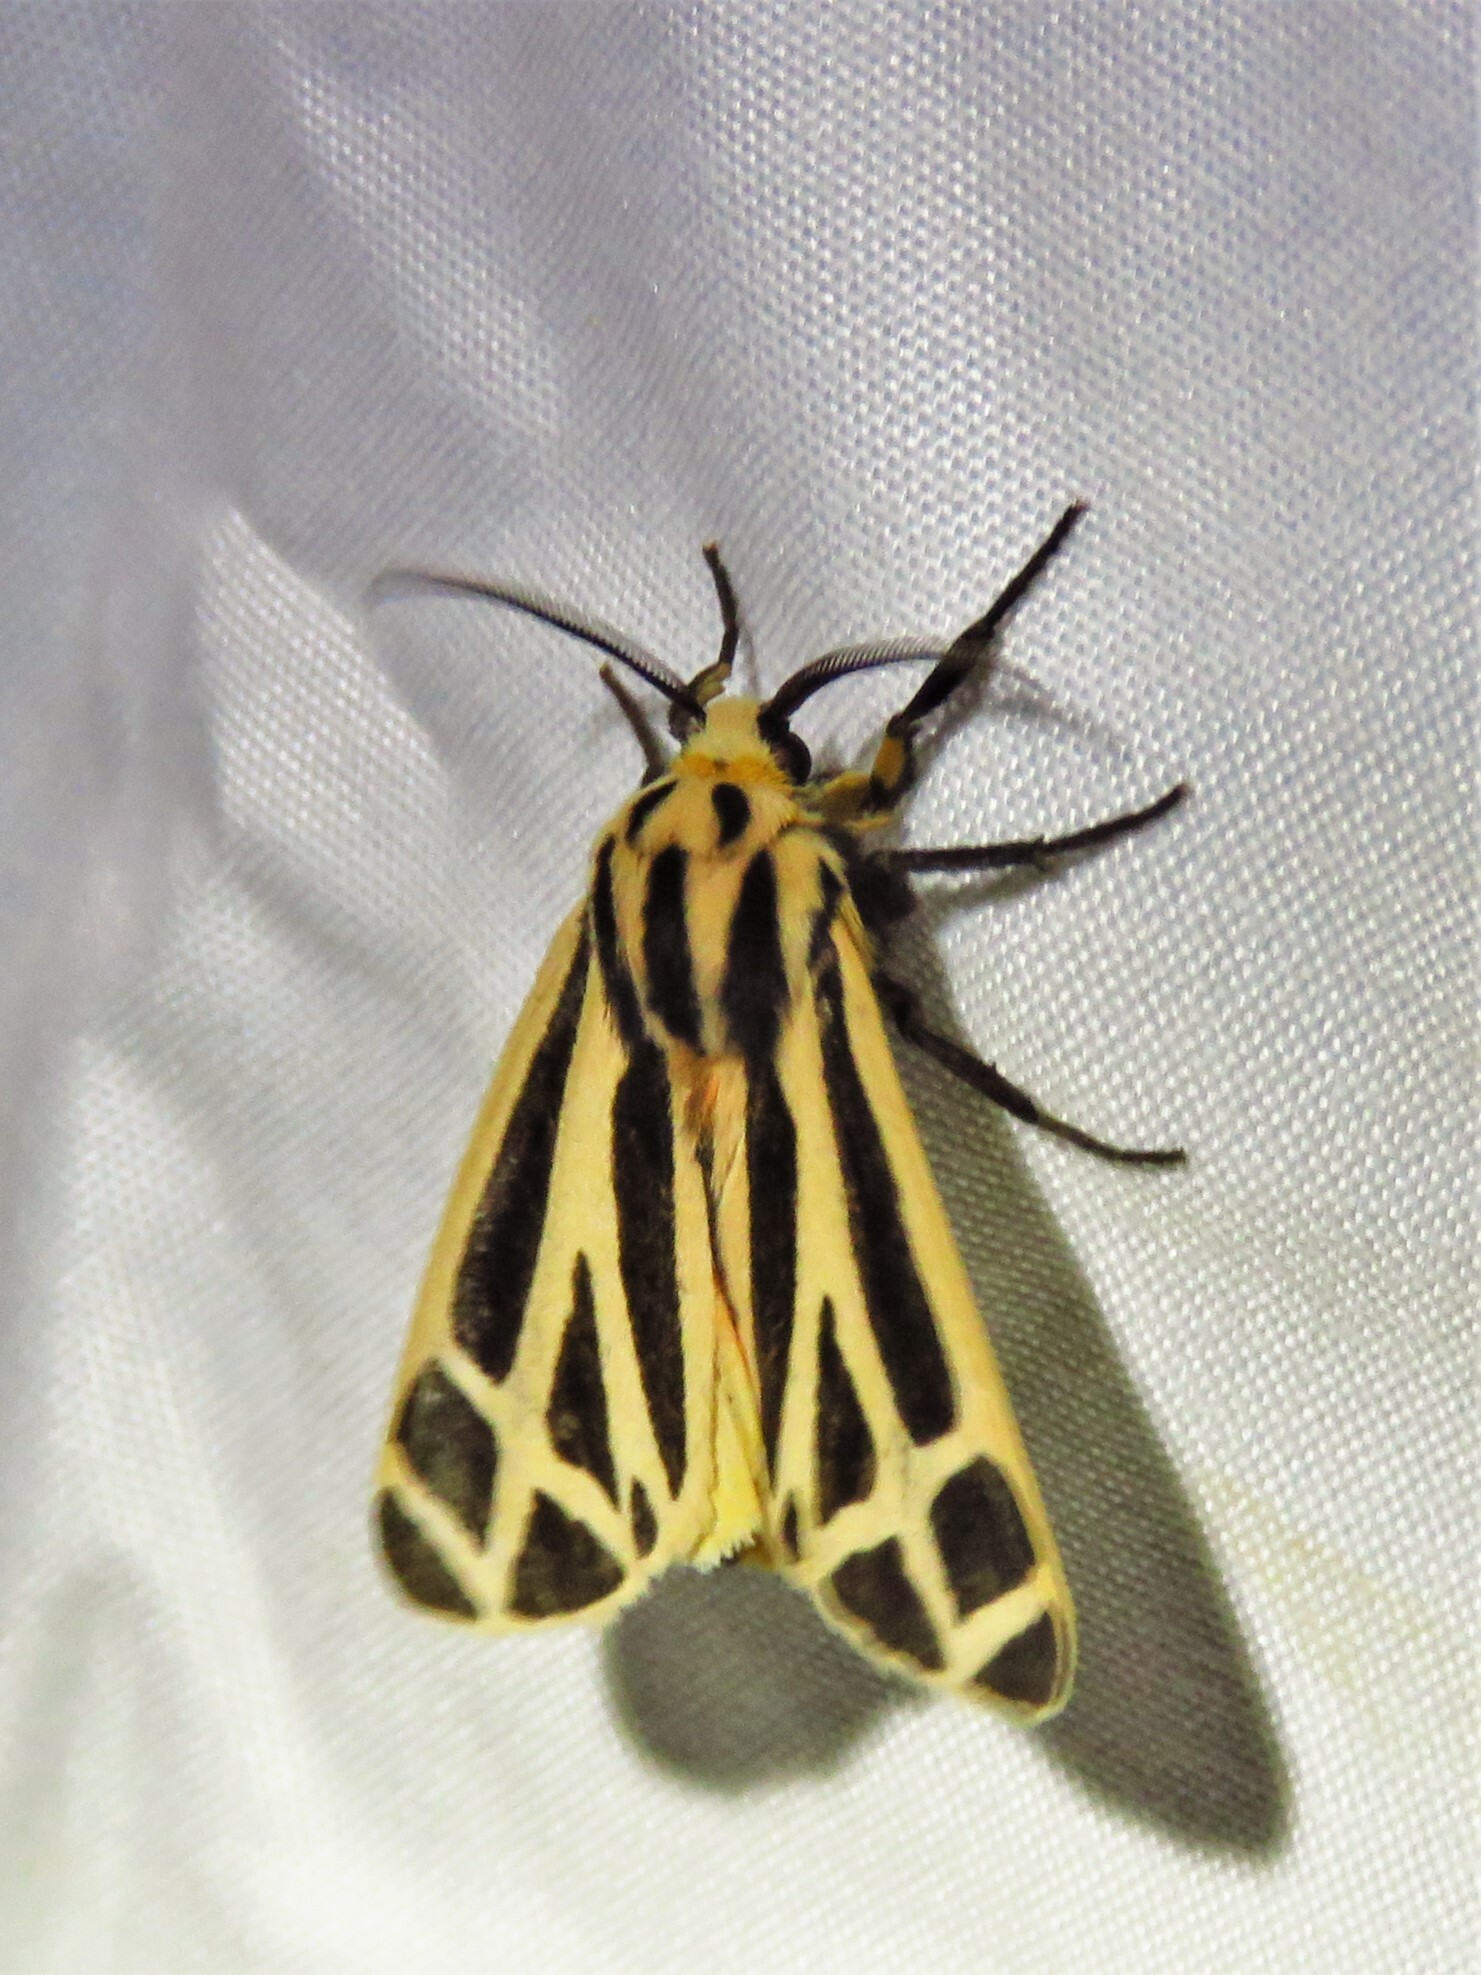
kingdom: Animalia
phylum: Arthropoda
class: Insecta
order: Lepidoptera
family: Erebidae
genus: Apantesis
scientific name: Apantesis phalerata
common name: Harnessed tiger moth
